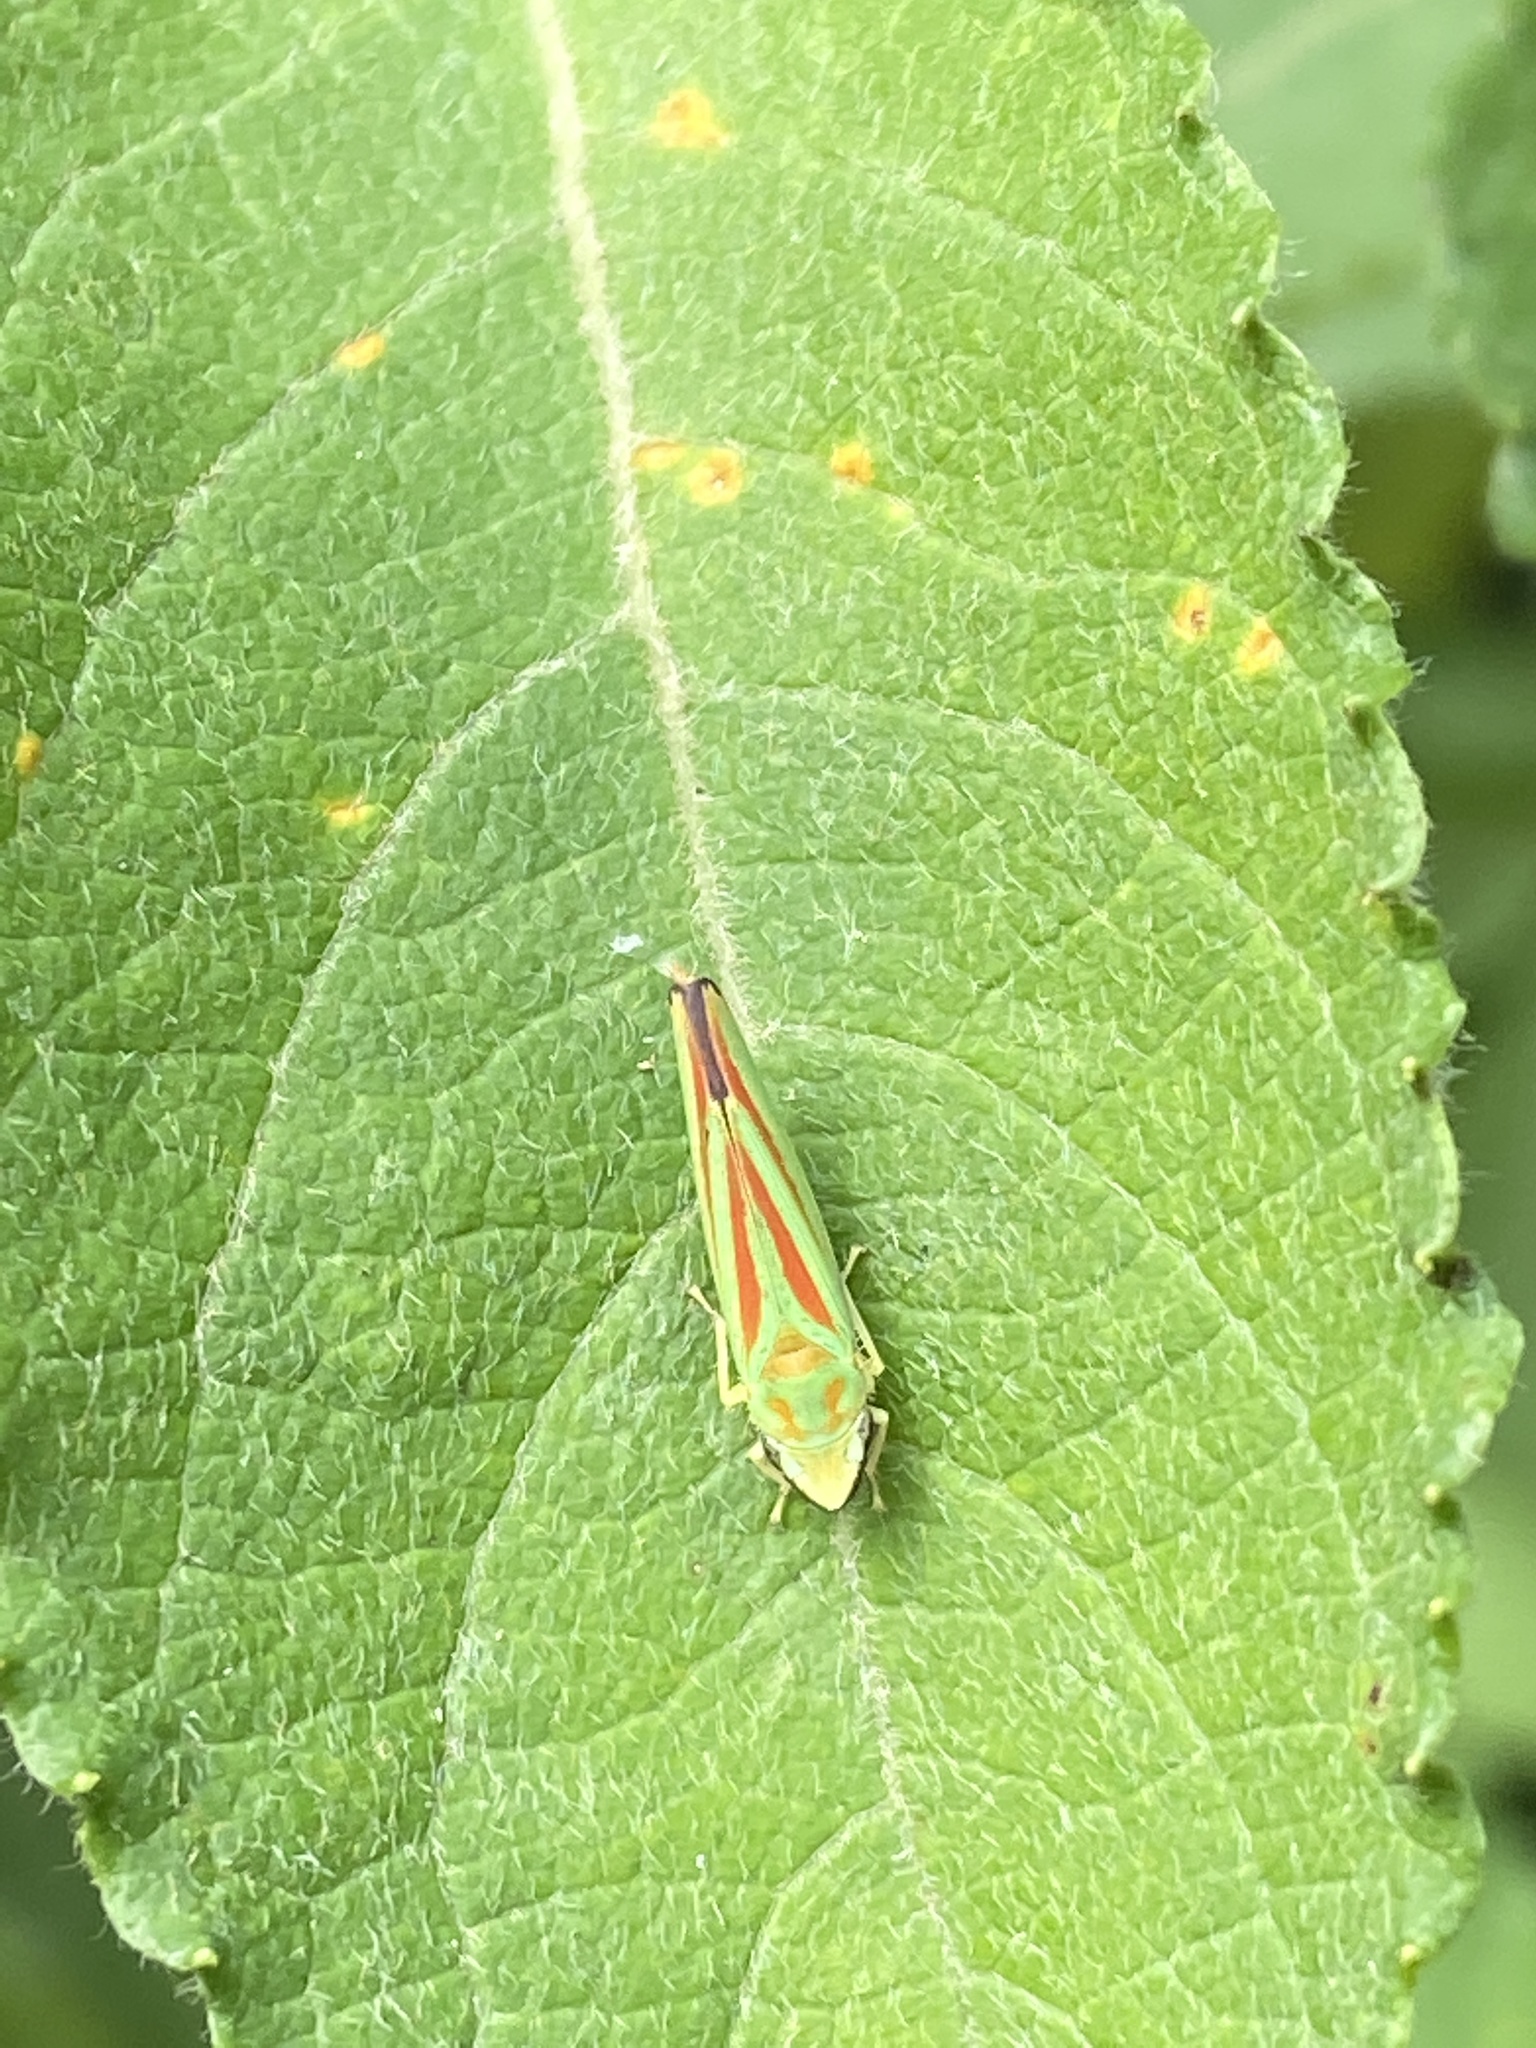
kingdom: Animalia
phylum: Arthropoda
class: Insecta
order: Hemiptera
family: Cicadellidae
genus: Graphocephala
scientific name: Graphocephala fennahi
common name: Rhododendron leafhopper
